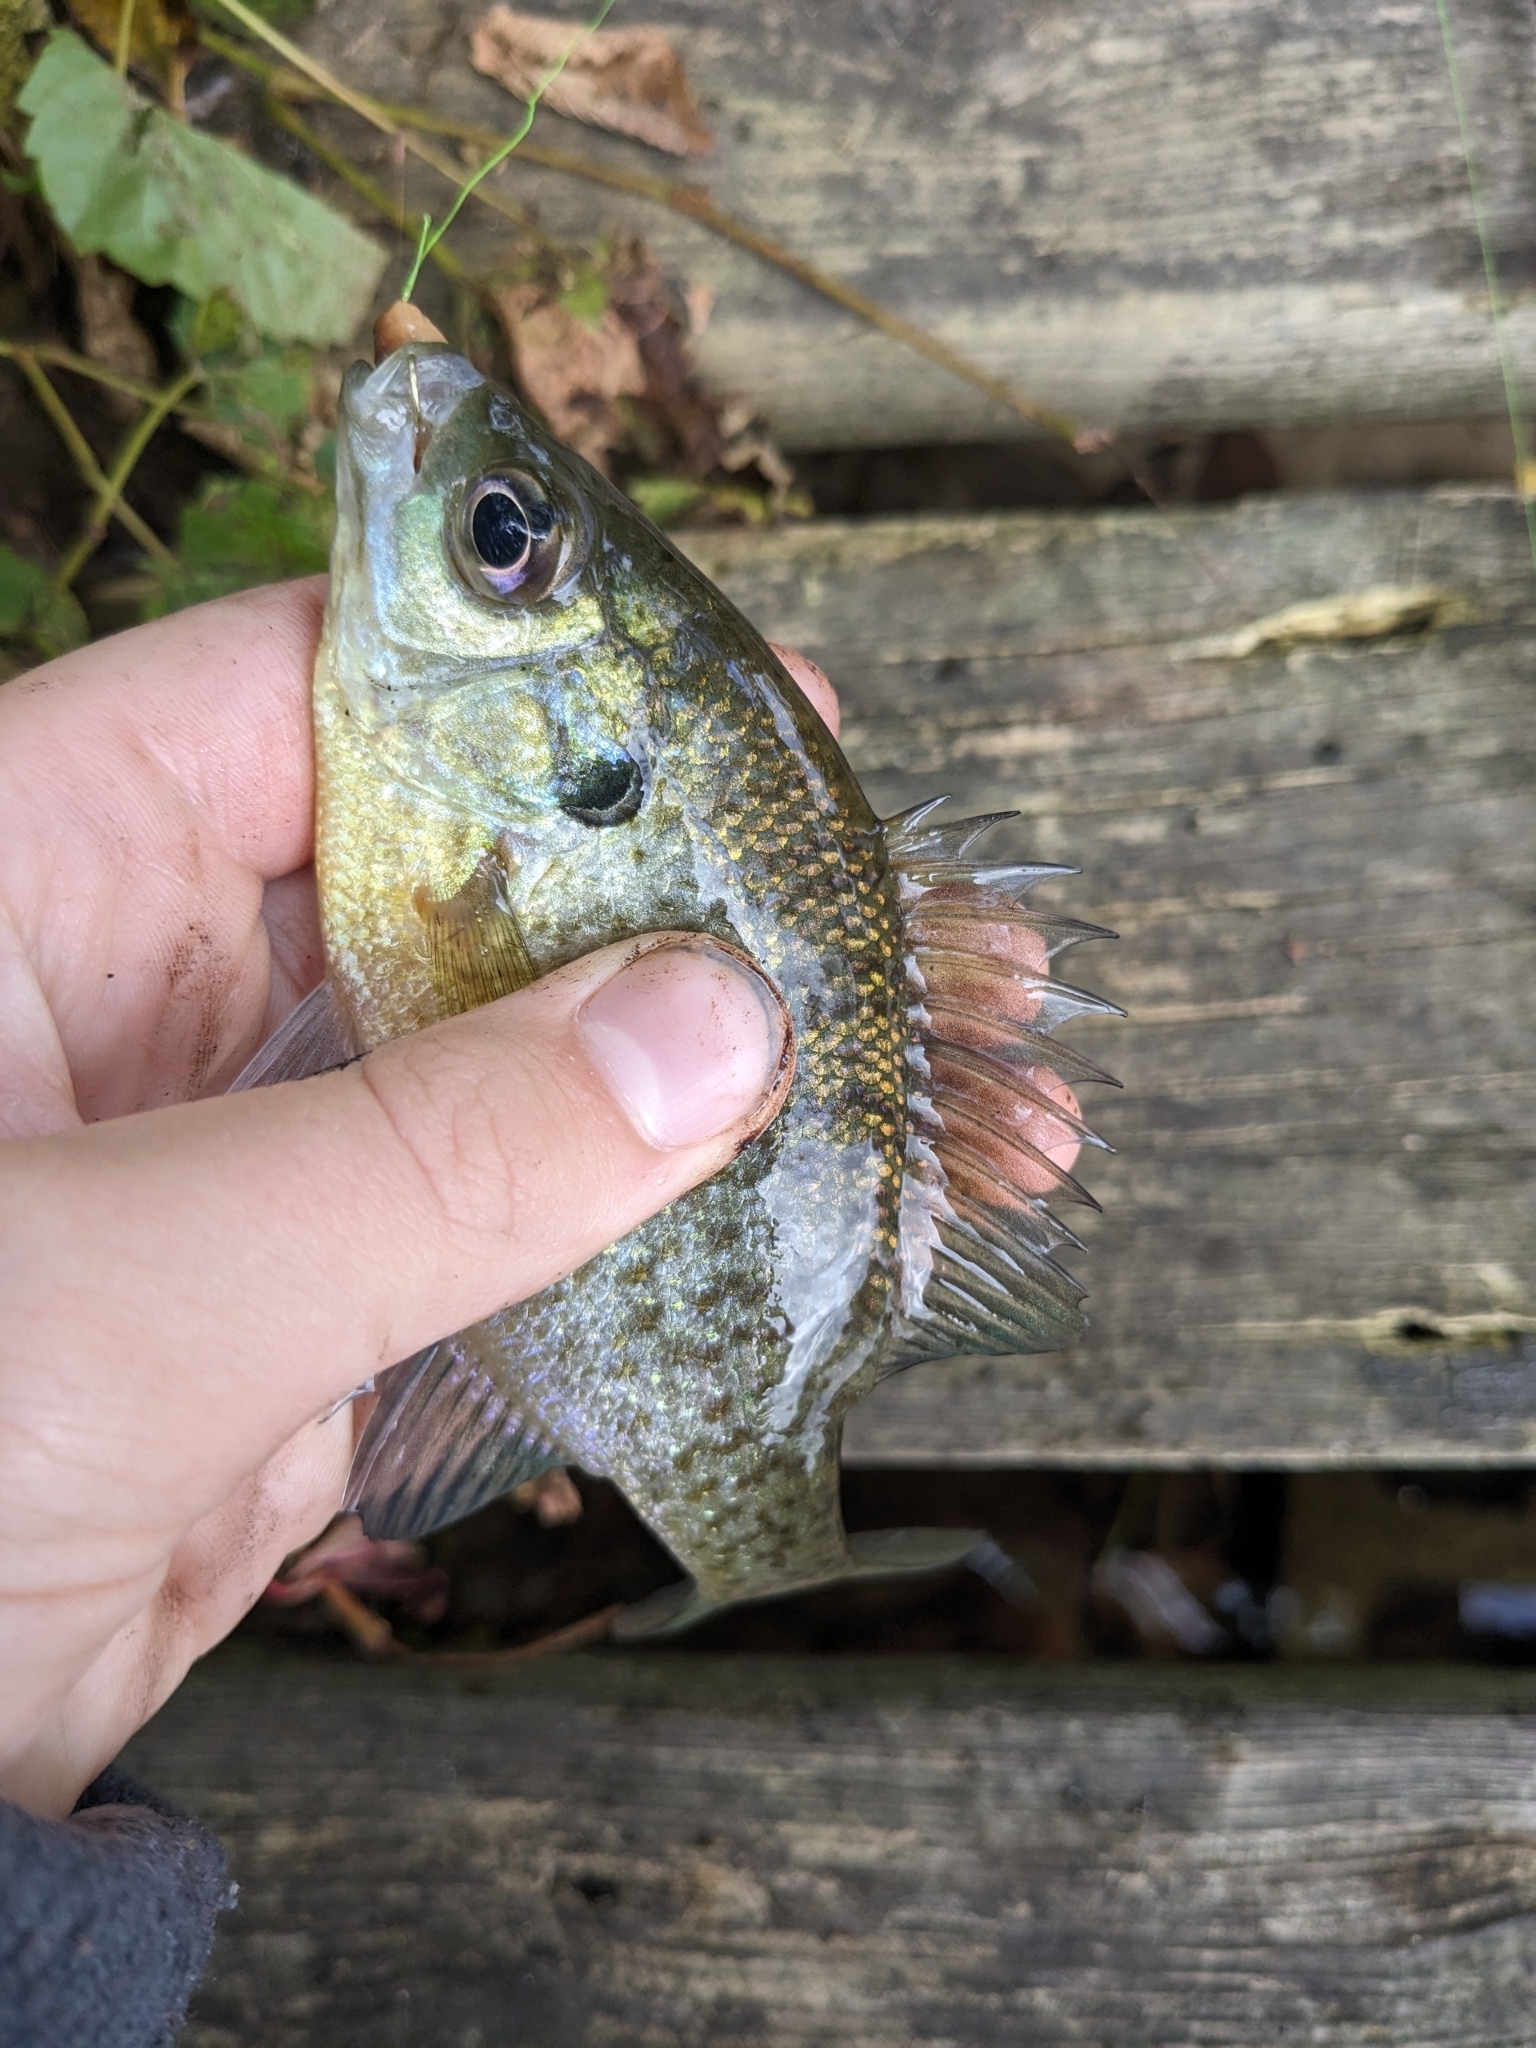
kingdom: Animalia
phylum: Chordata
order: Perciformes
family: Centrarchidae
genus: Lepomis
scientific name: Lepomis macrochirus
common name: Bluegill
